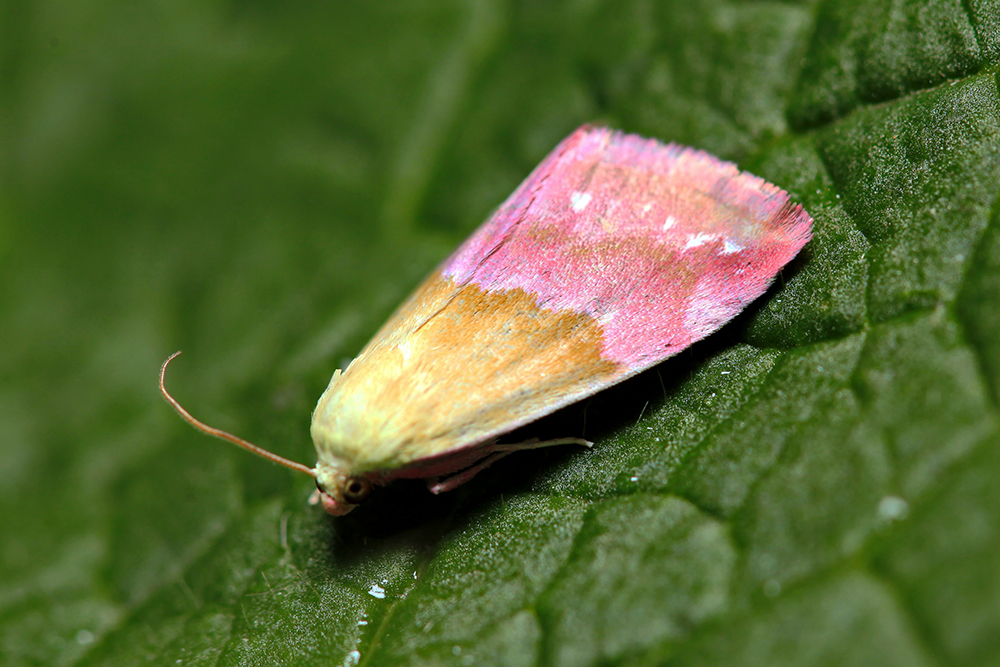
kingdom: Animalia
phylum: Arthropoda
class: Insecta
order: Lepidoptera
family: Noctuidae
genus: Eublemma
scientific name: Eublemma amasina
